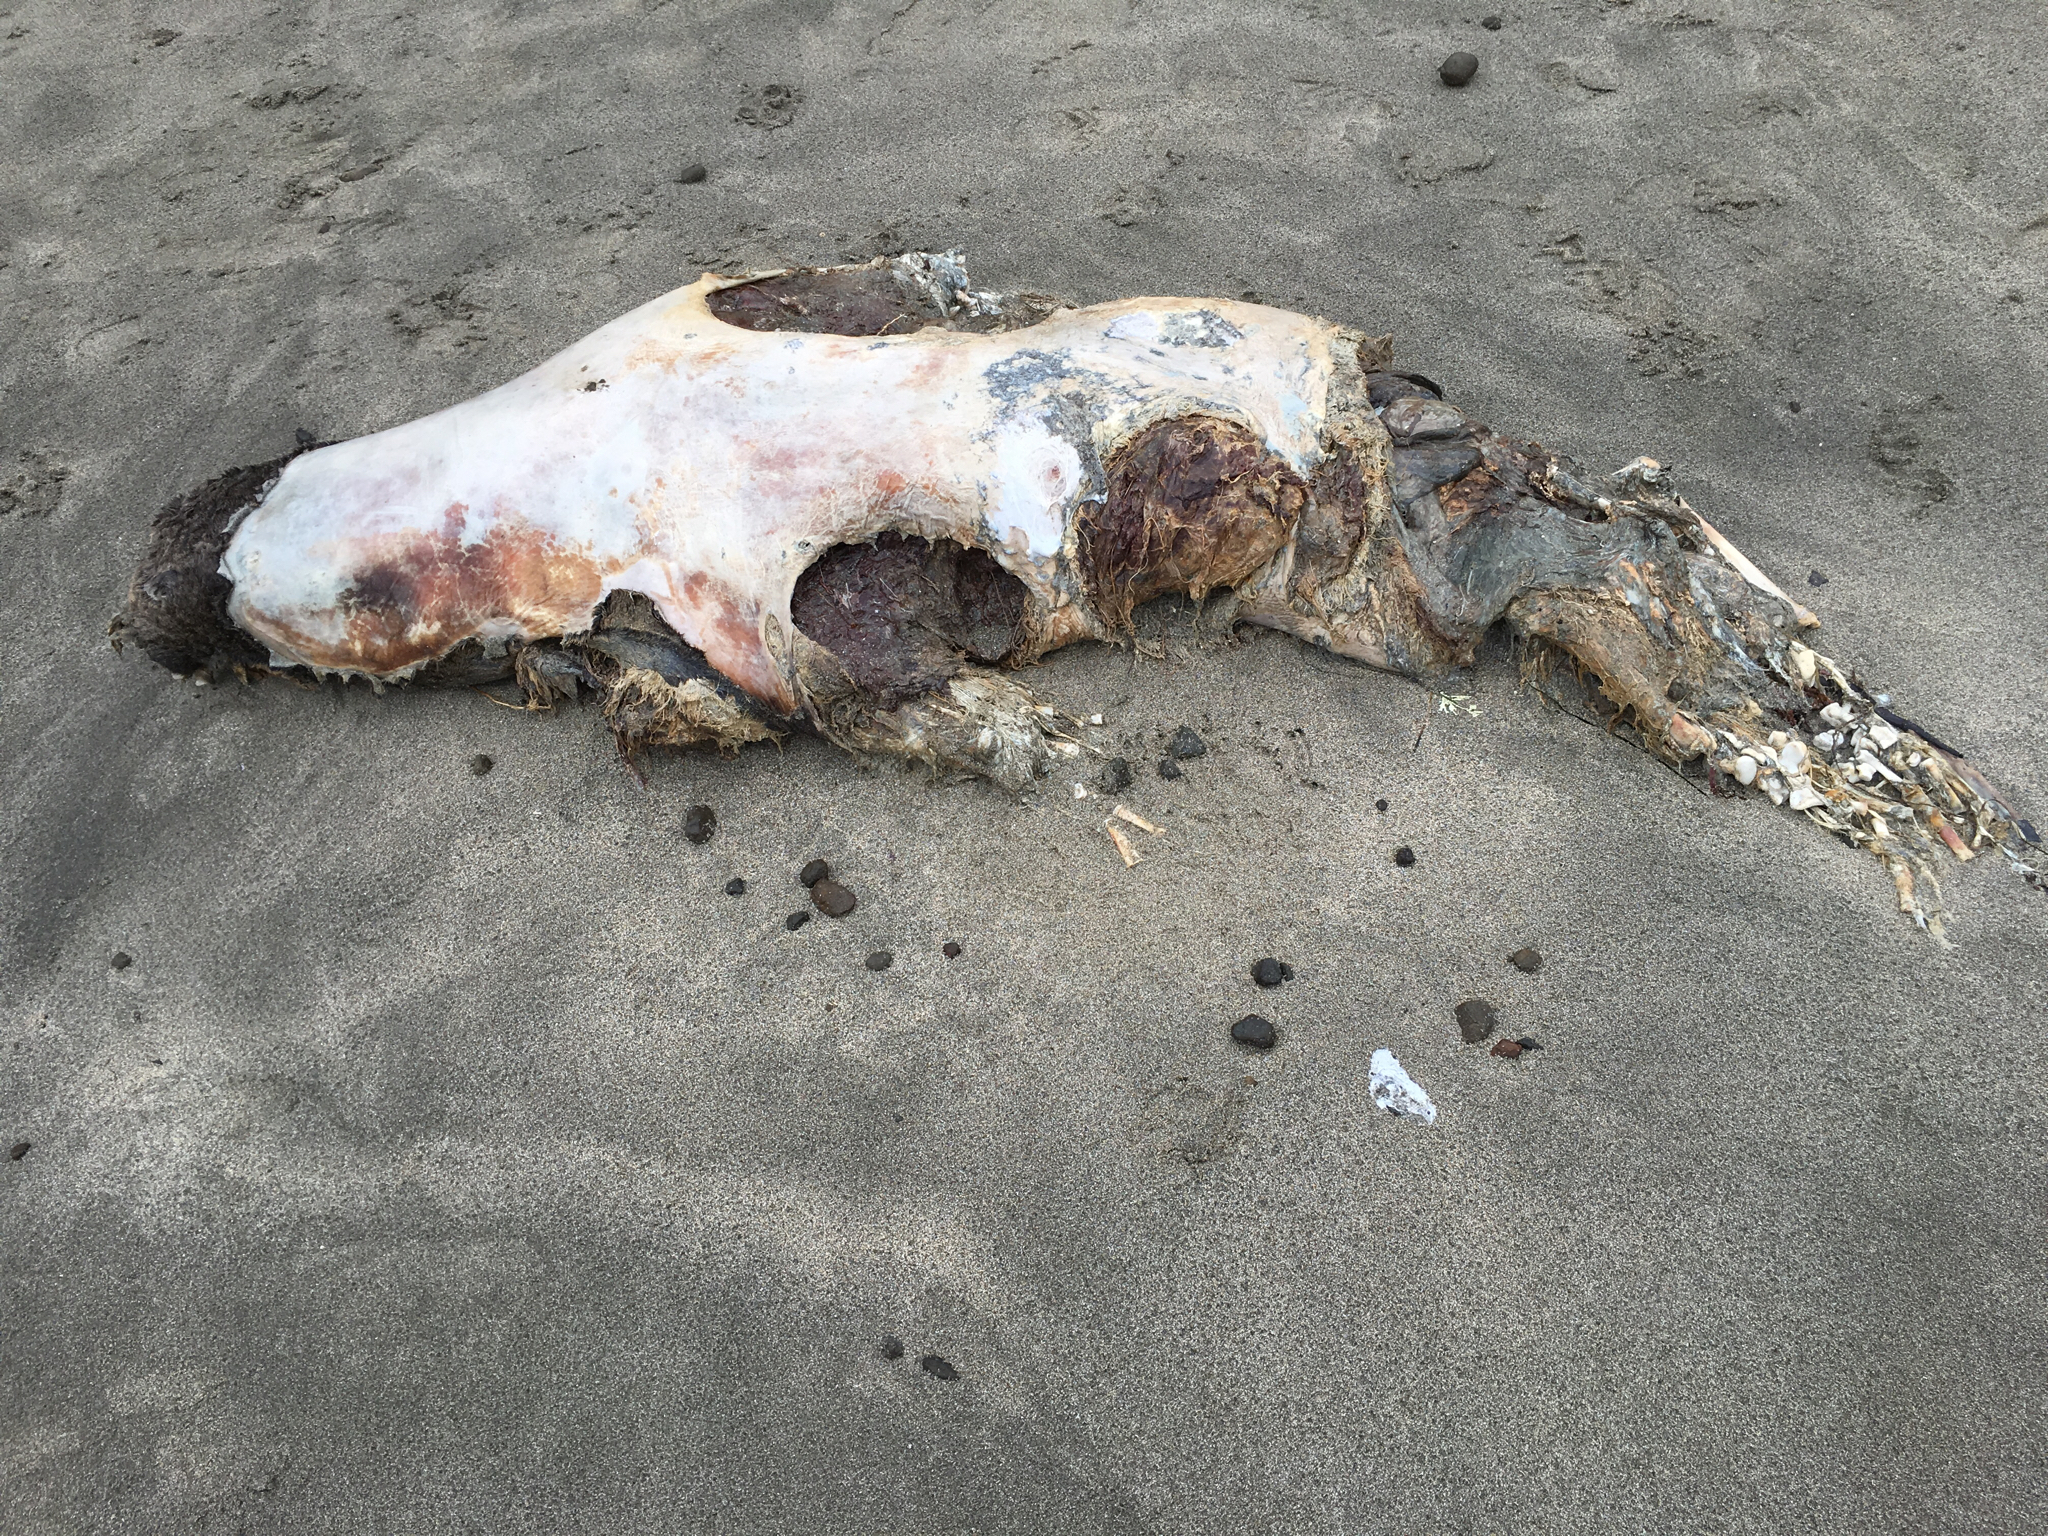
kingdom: Animalia
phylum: Chordata
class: Mammalia
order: Carnivora
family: Otariidae
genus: Zalophus
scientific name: Zalophus californianus
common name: California sea lion
